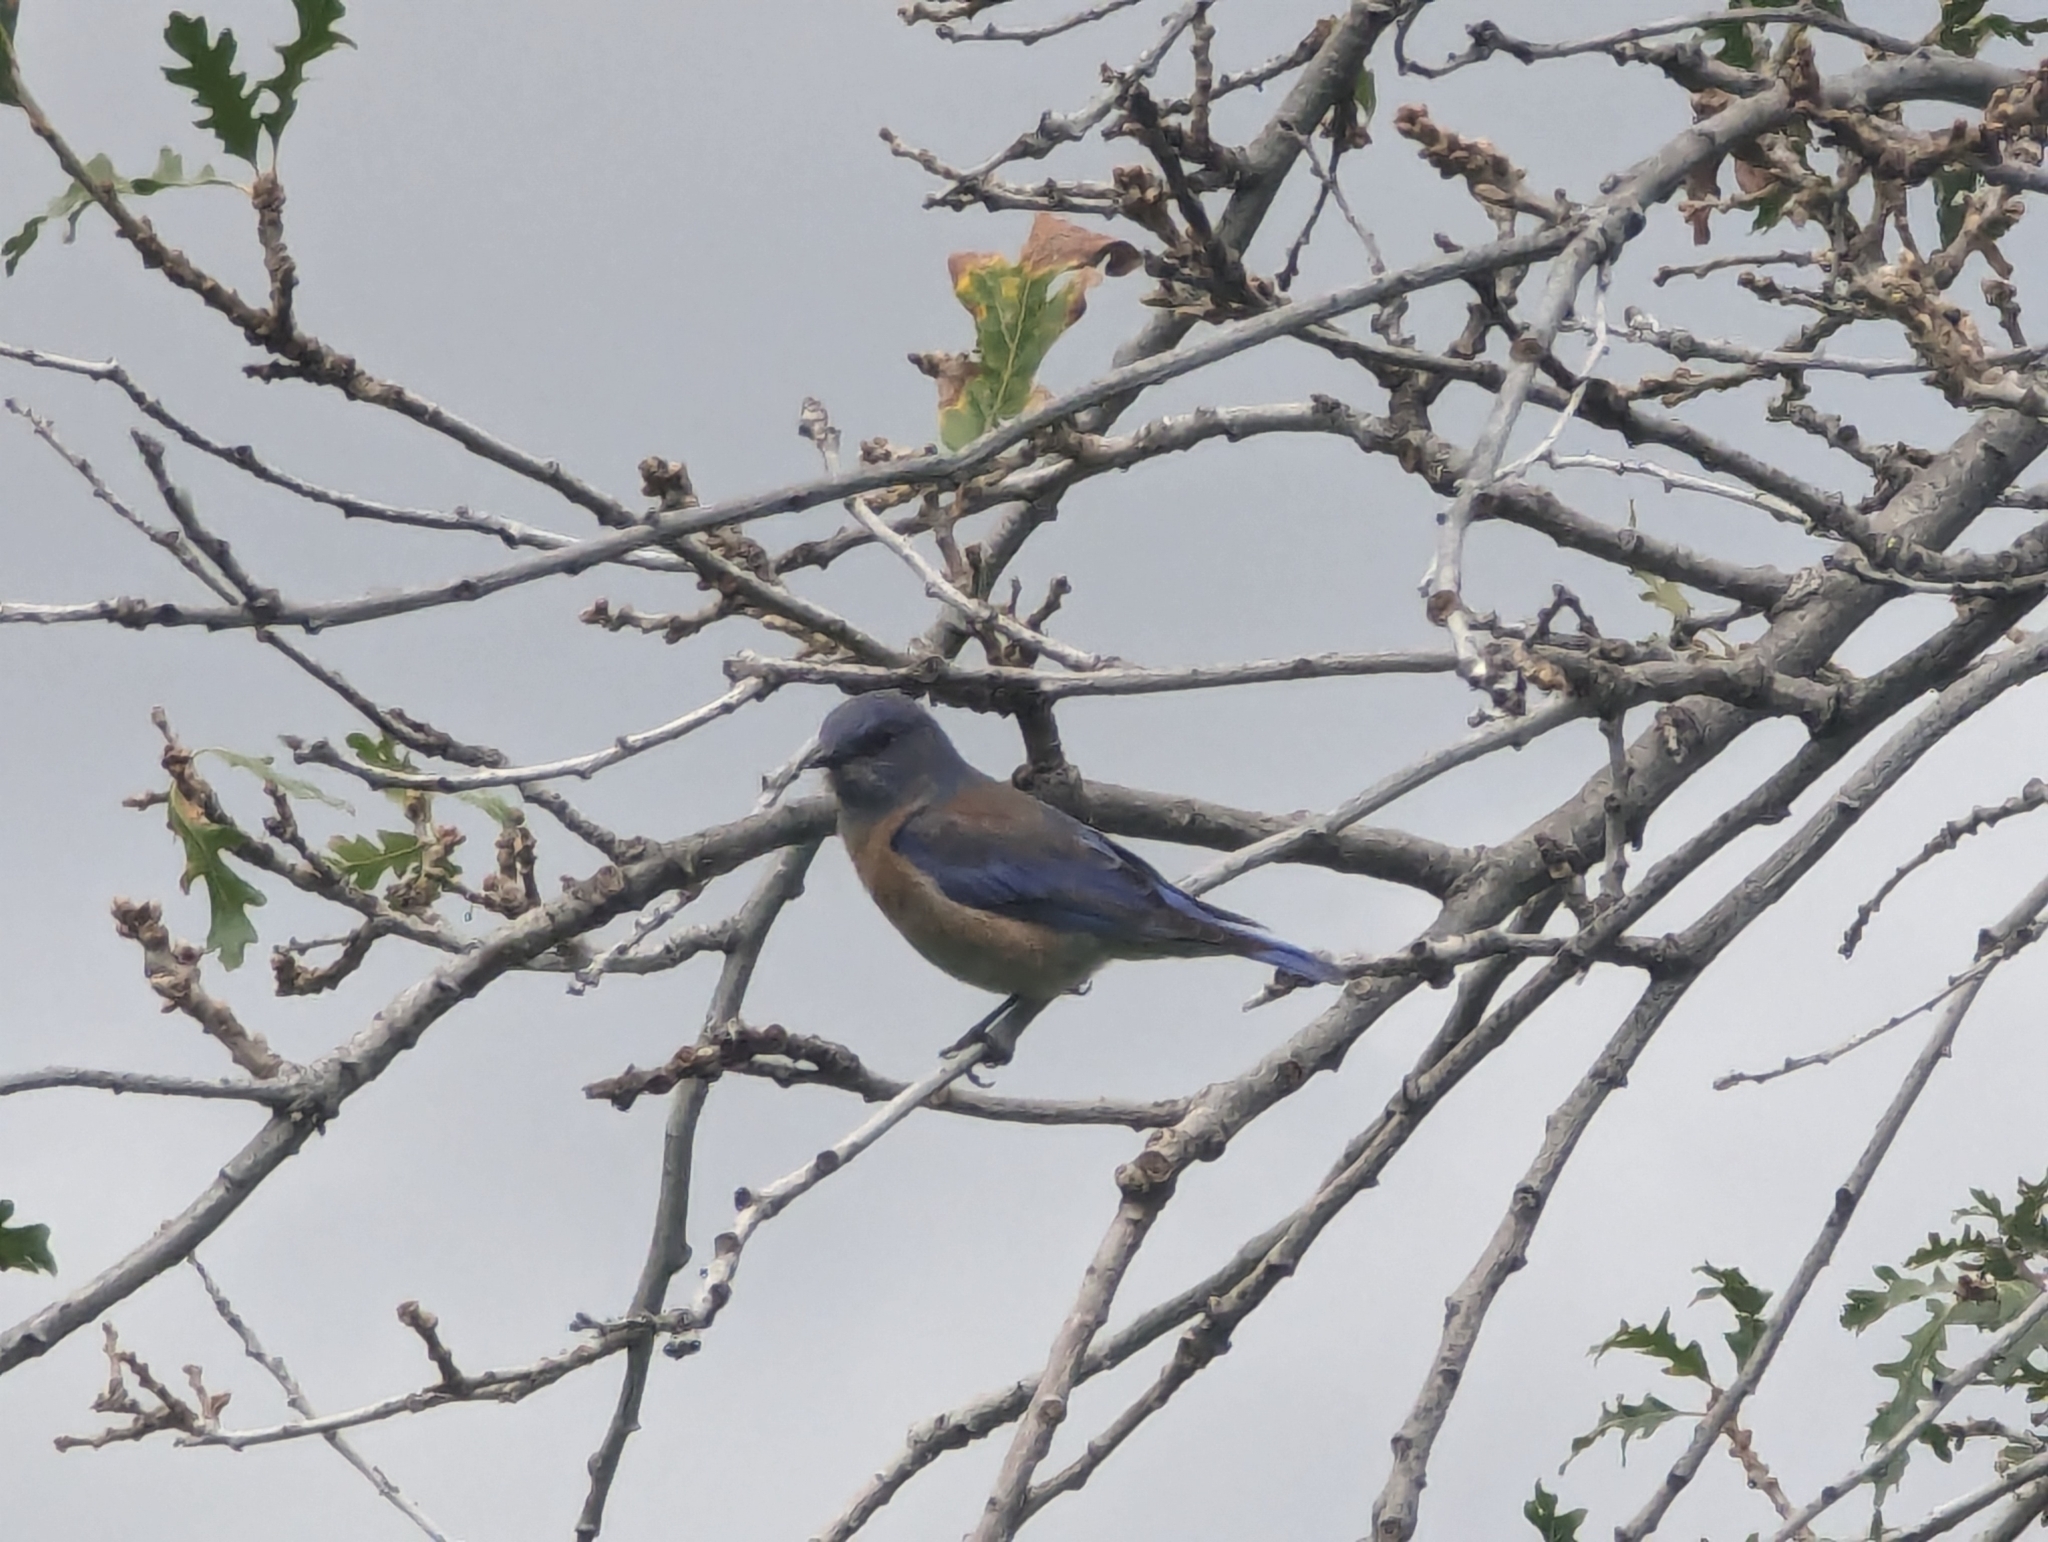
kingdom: Animalia
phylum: Chordata
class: Aves
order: Passeriformes
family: Turdidae
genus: Sialia
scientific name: Sialia mexicana
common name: Western bluebird
